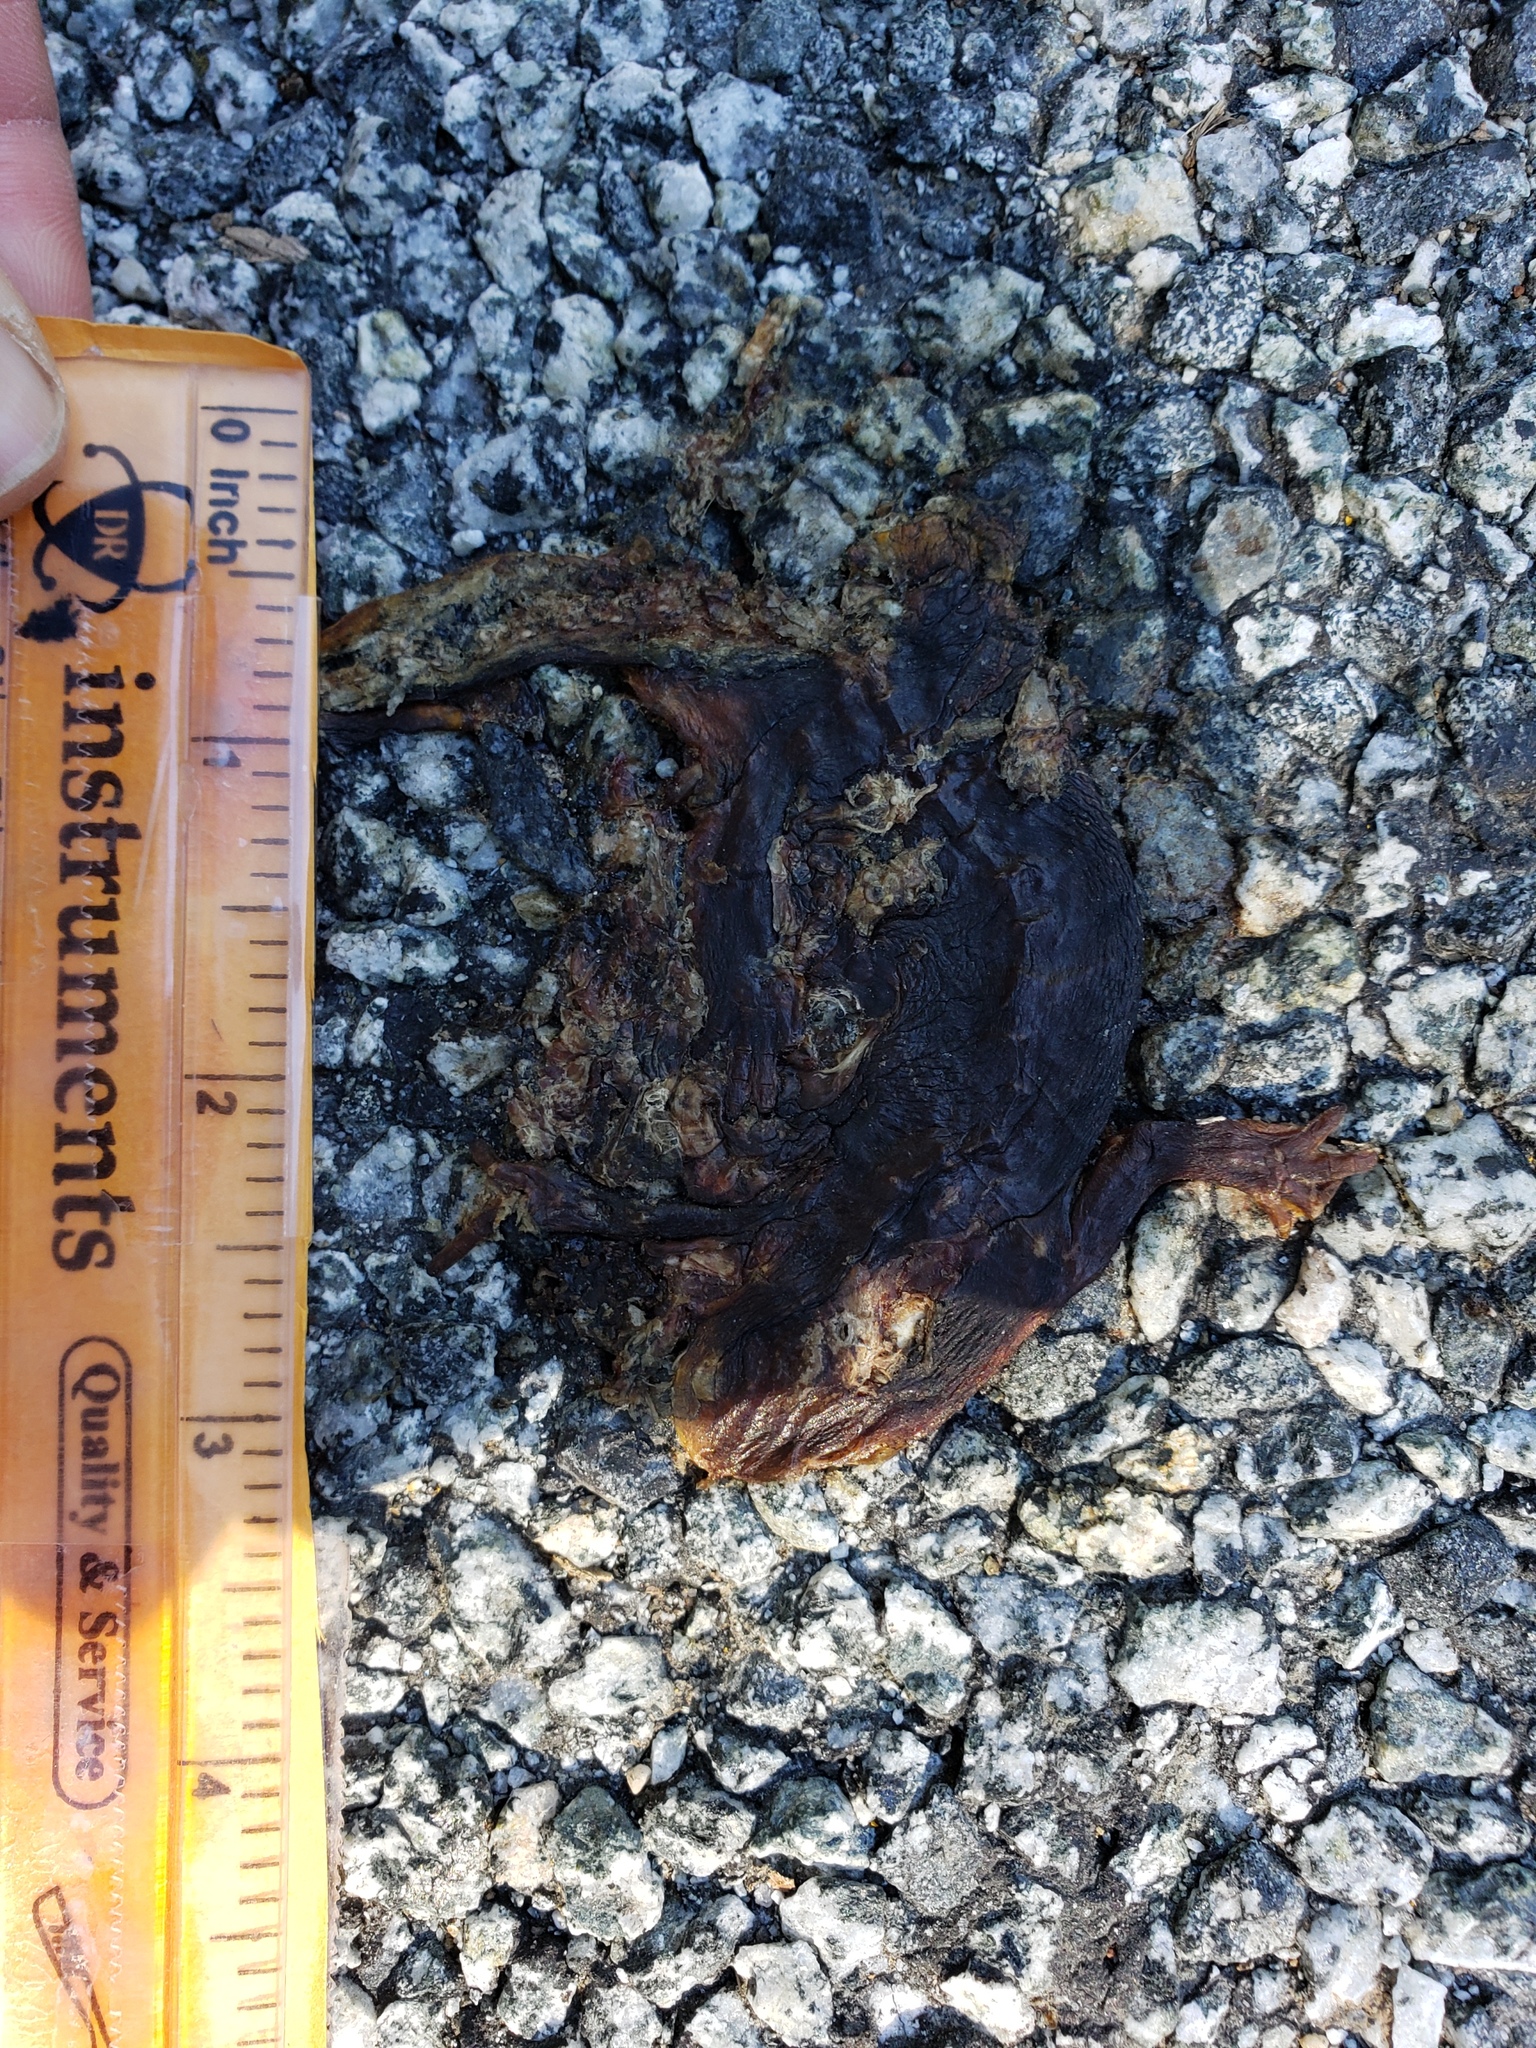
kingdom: Animalia
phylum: Chordata
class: Amphibia
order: Caudata
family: Salamandridae
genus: Taricha
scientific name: Taricha
